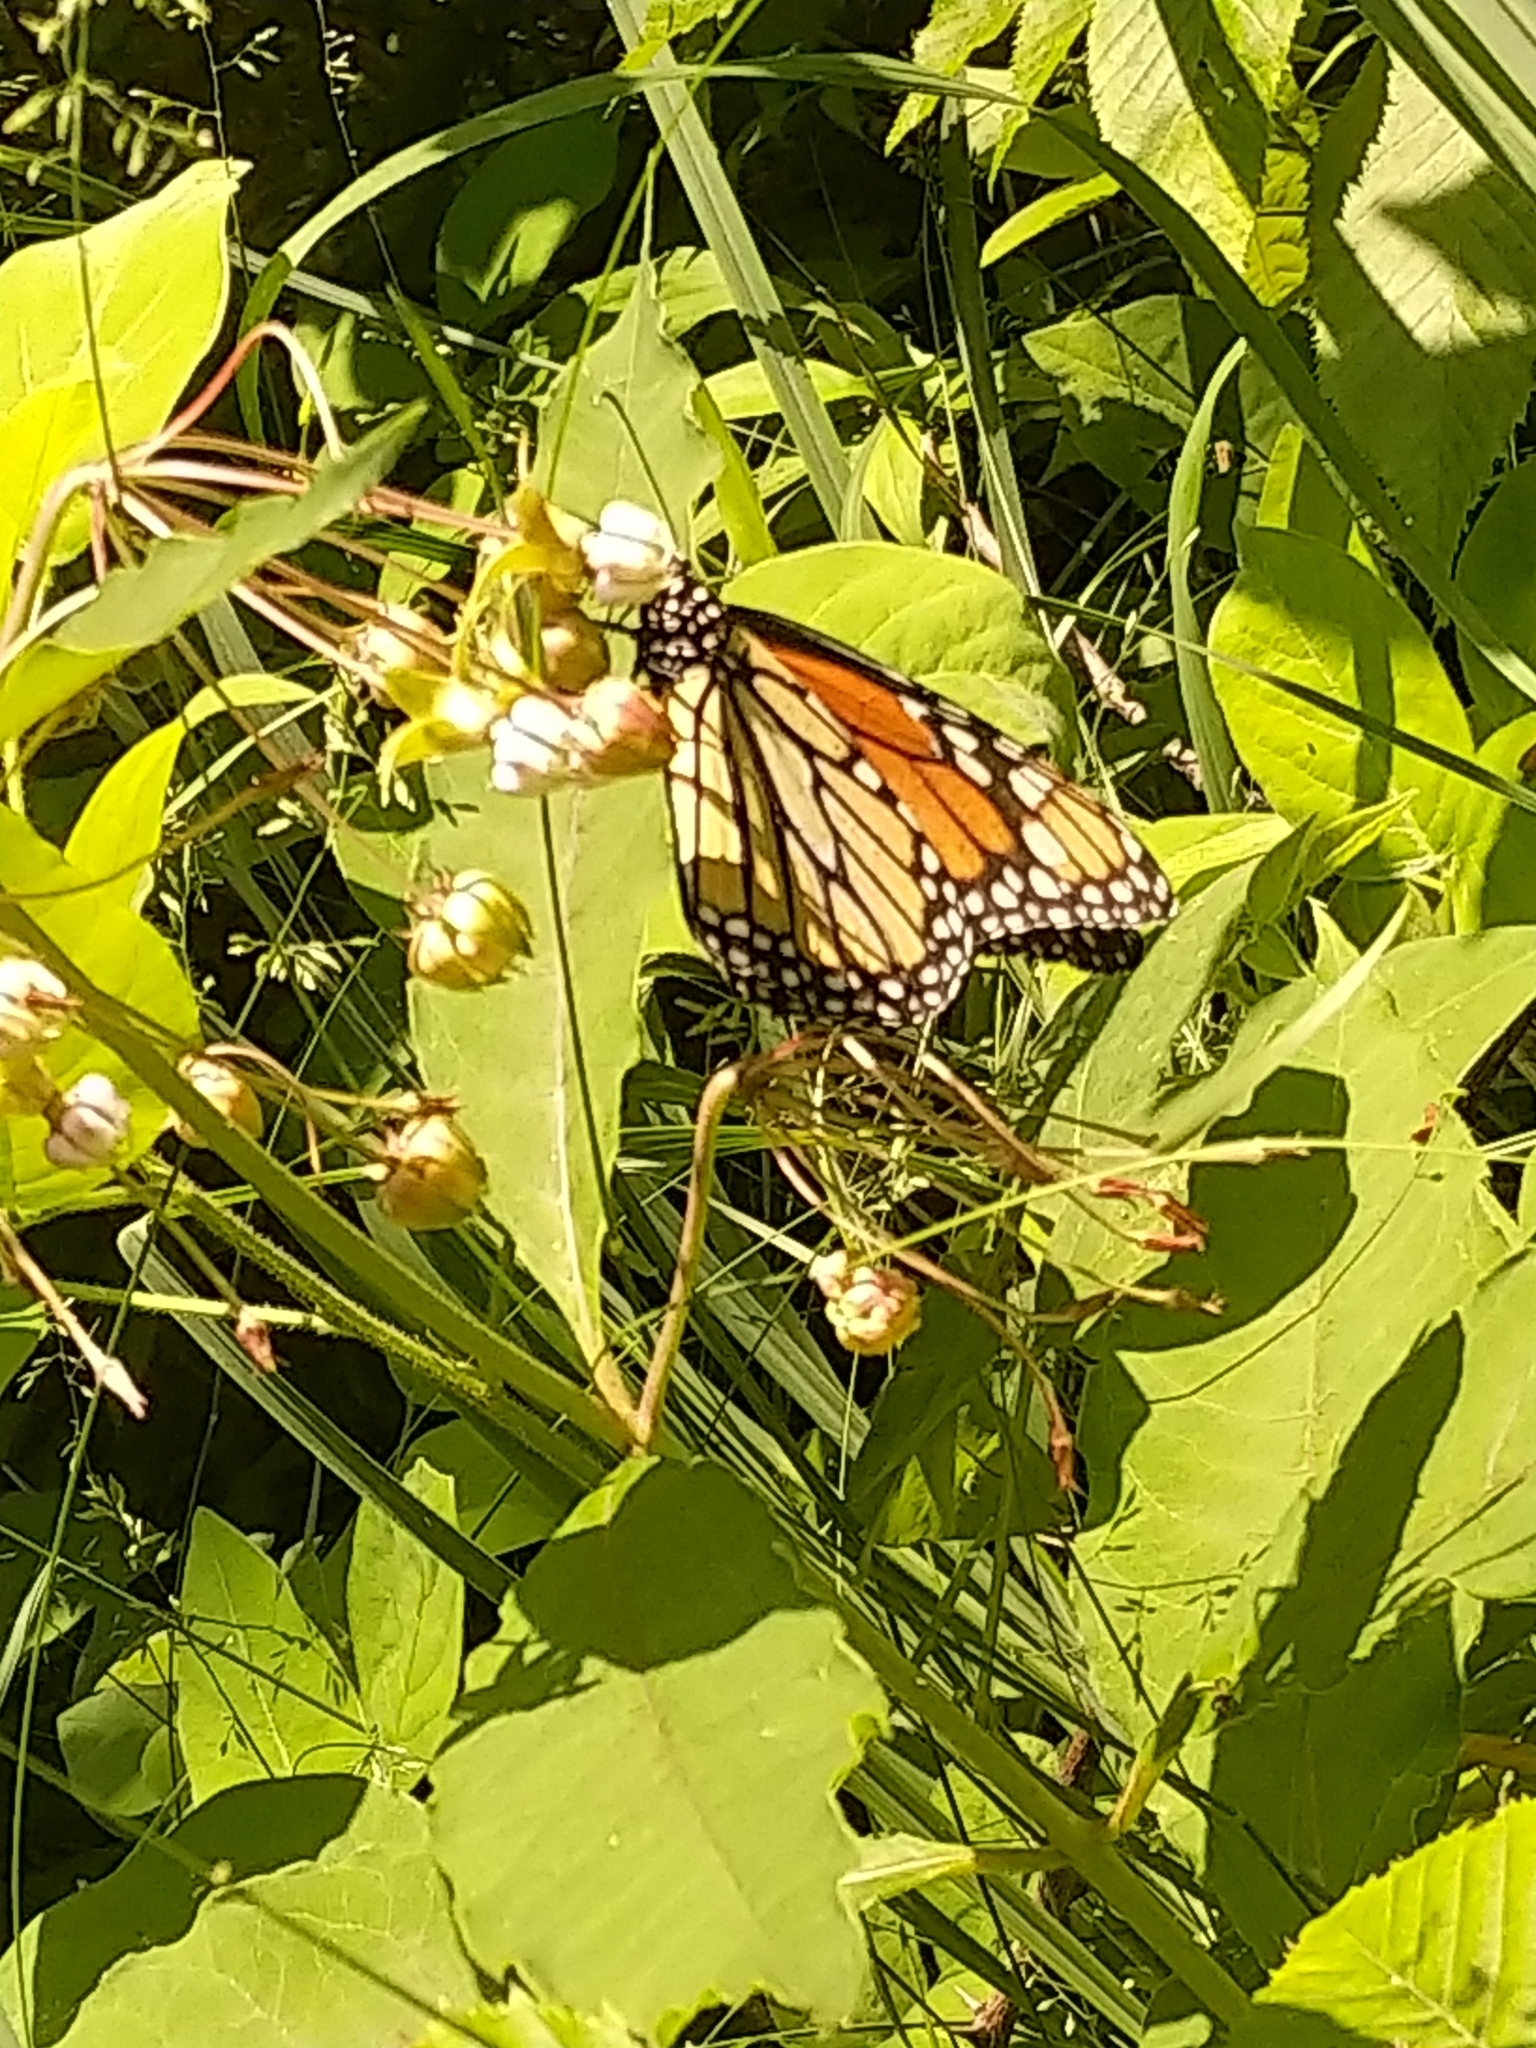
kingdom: Animalia
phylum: Arthropoda
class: Insecta
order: Lepidoptera
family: Nymphalidae
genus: Danaus
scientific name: Danaus plexippus
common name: Monarch
